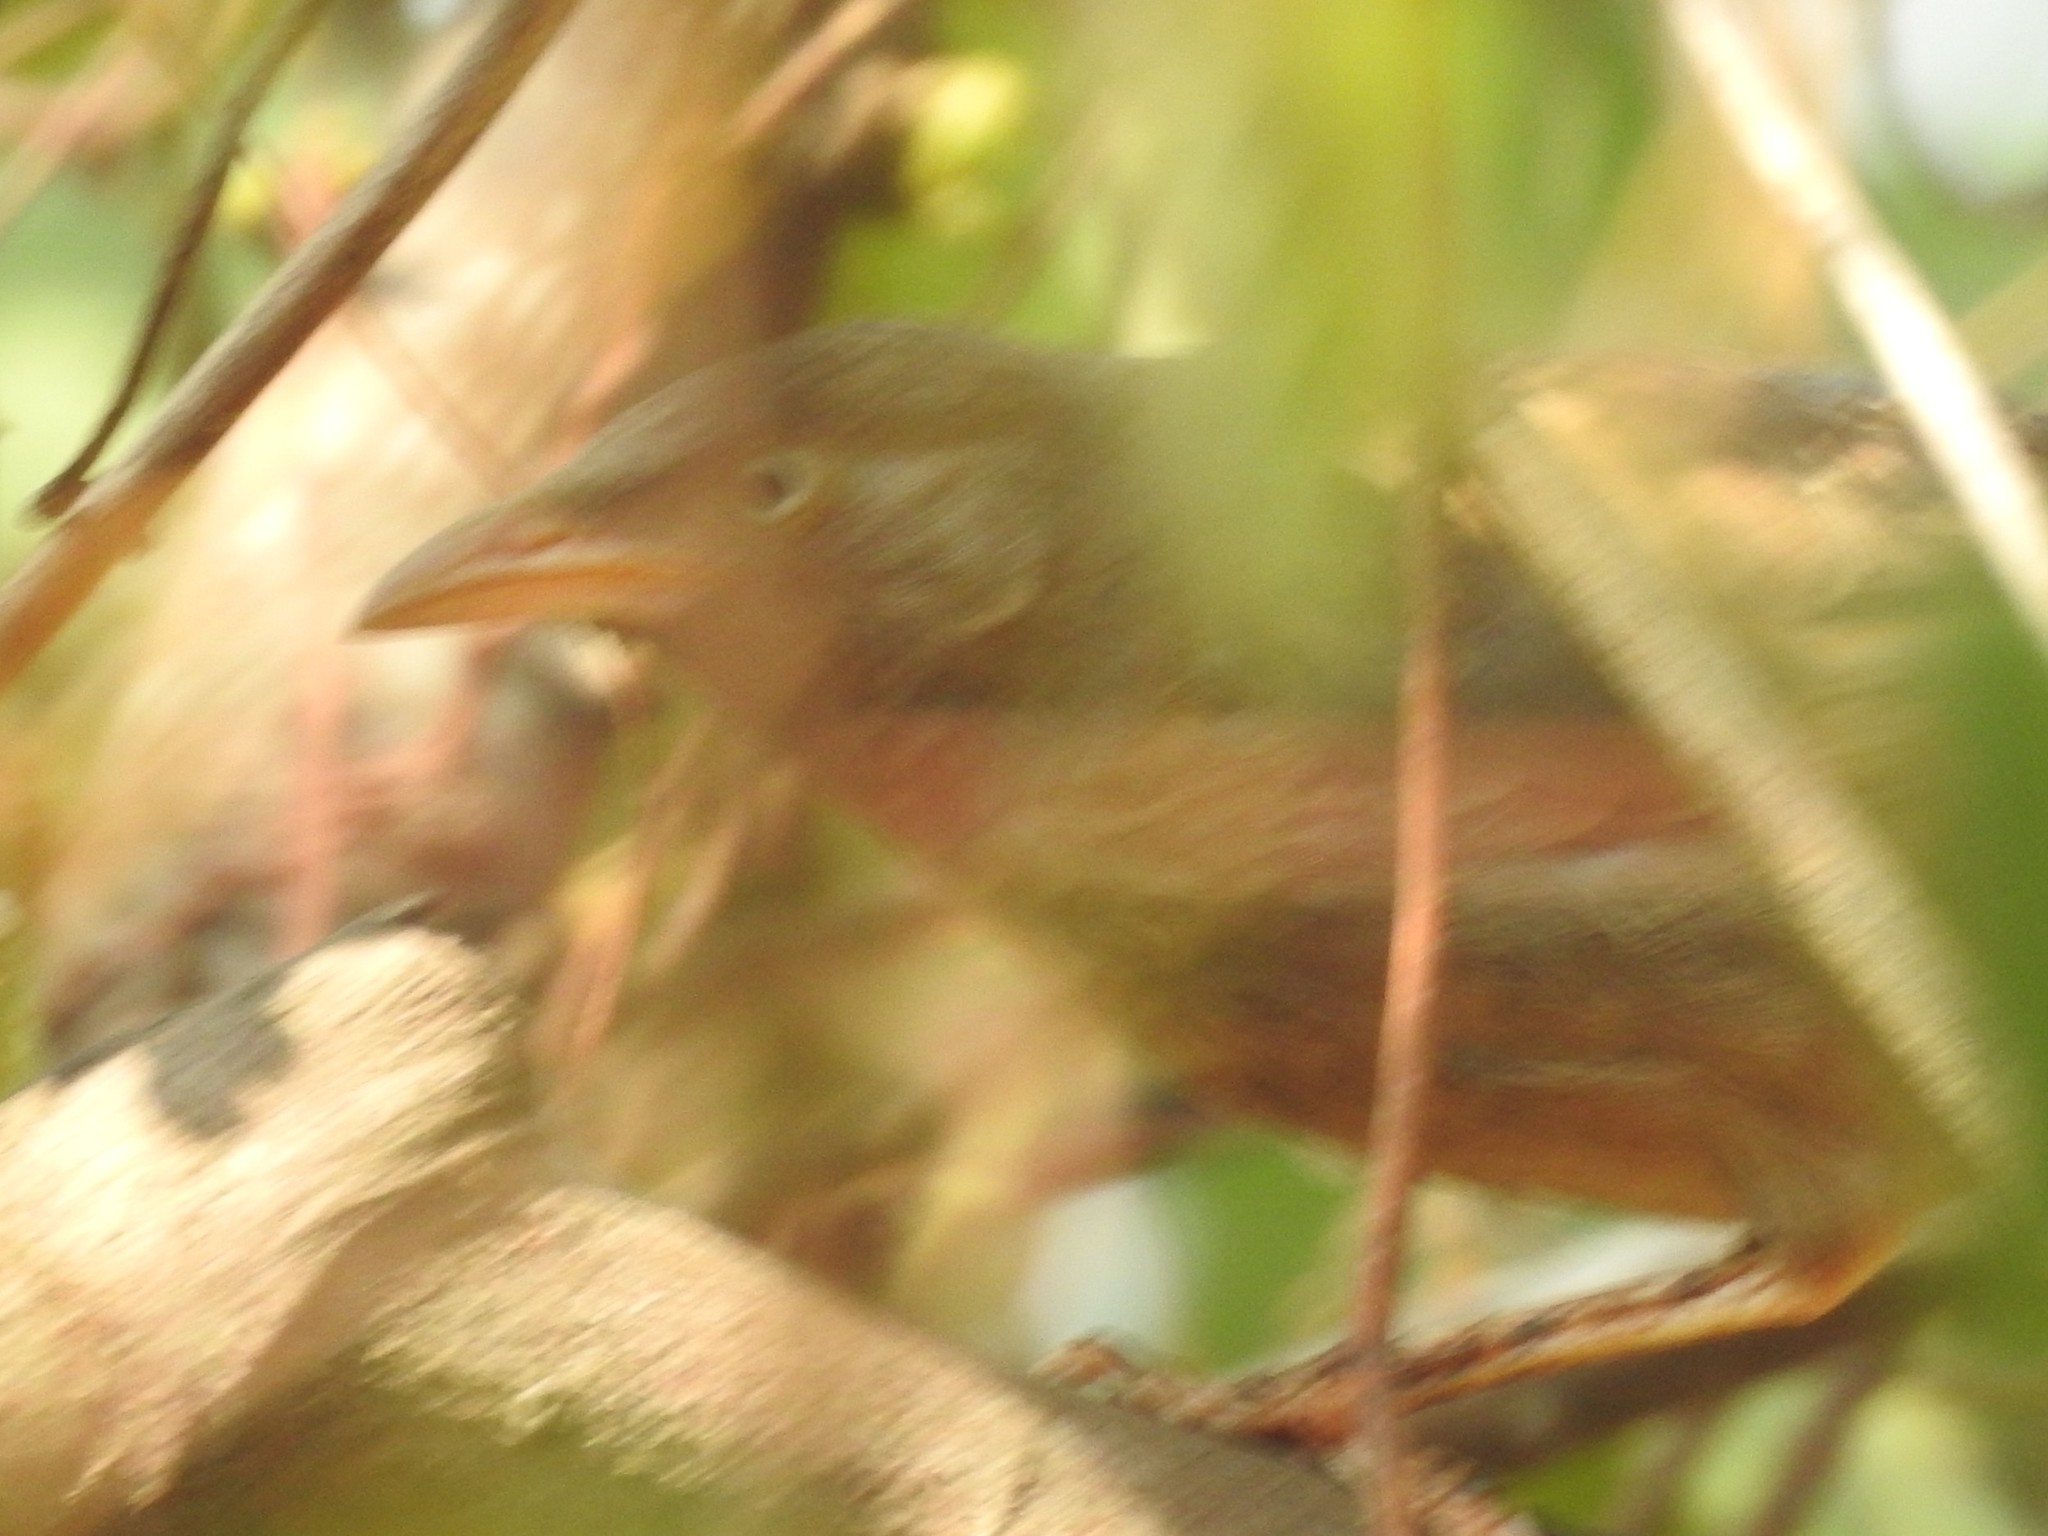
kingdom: Animalia
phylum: Chordata
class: Aves
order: Passeriformes
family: Leiothrichidae
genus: Turdoides
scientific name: Turdoides affinis
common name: Yellow-billed babbler
